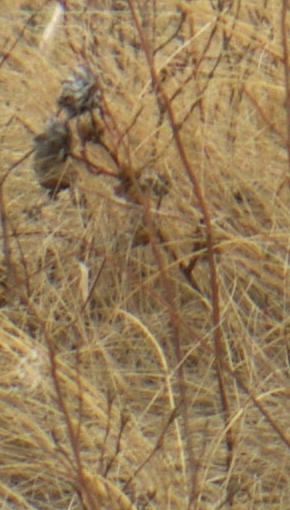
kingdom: Animalia
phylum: Arthropoda
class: Insecta
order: Diptera
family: Cecidomyiidae
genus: Rabdophaga
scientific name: Rabdophaga rosacea
